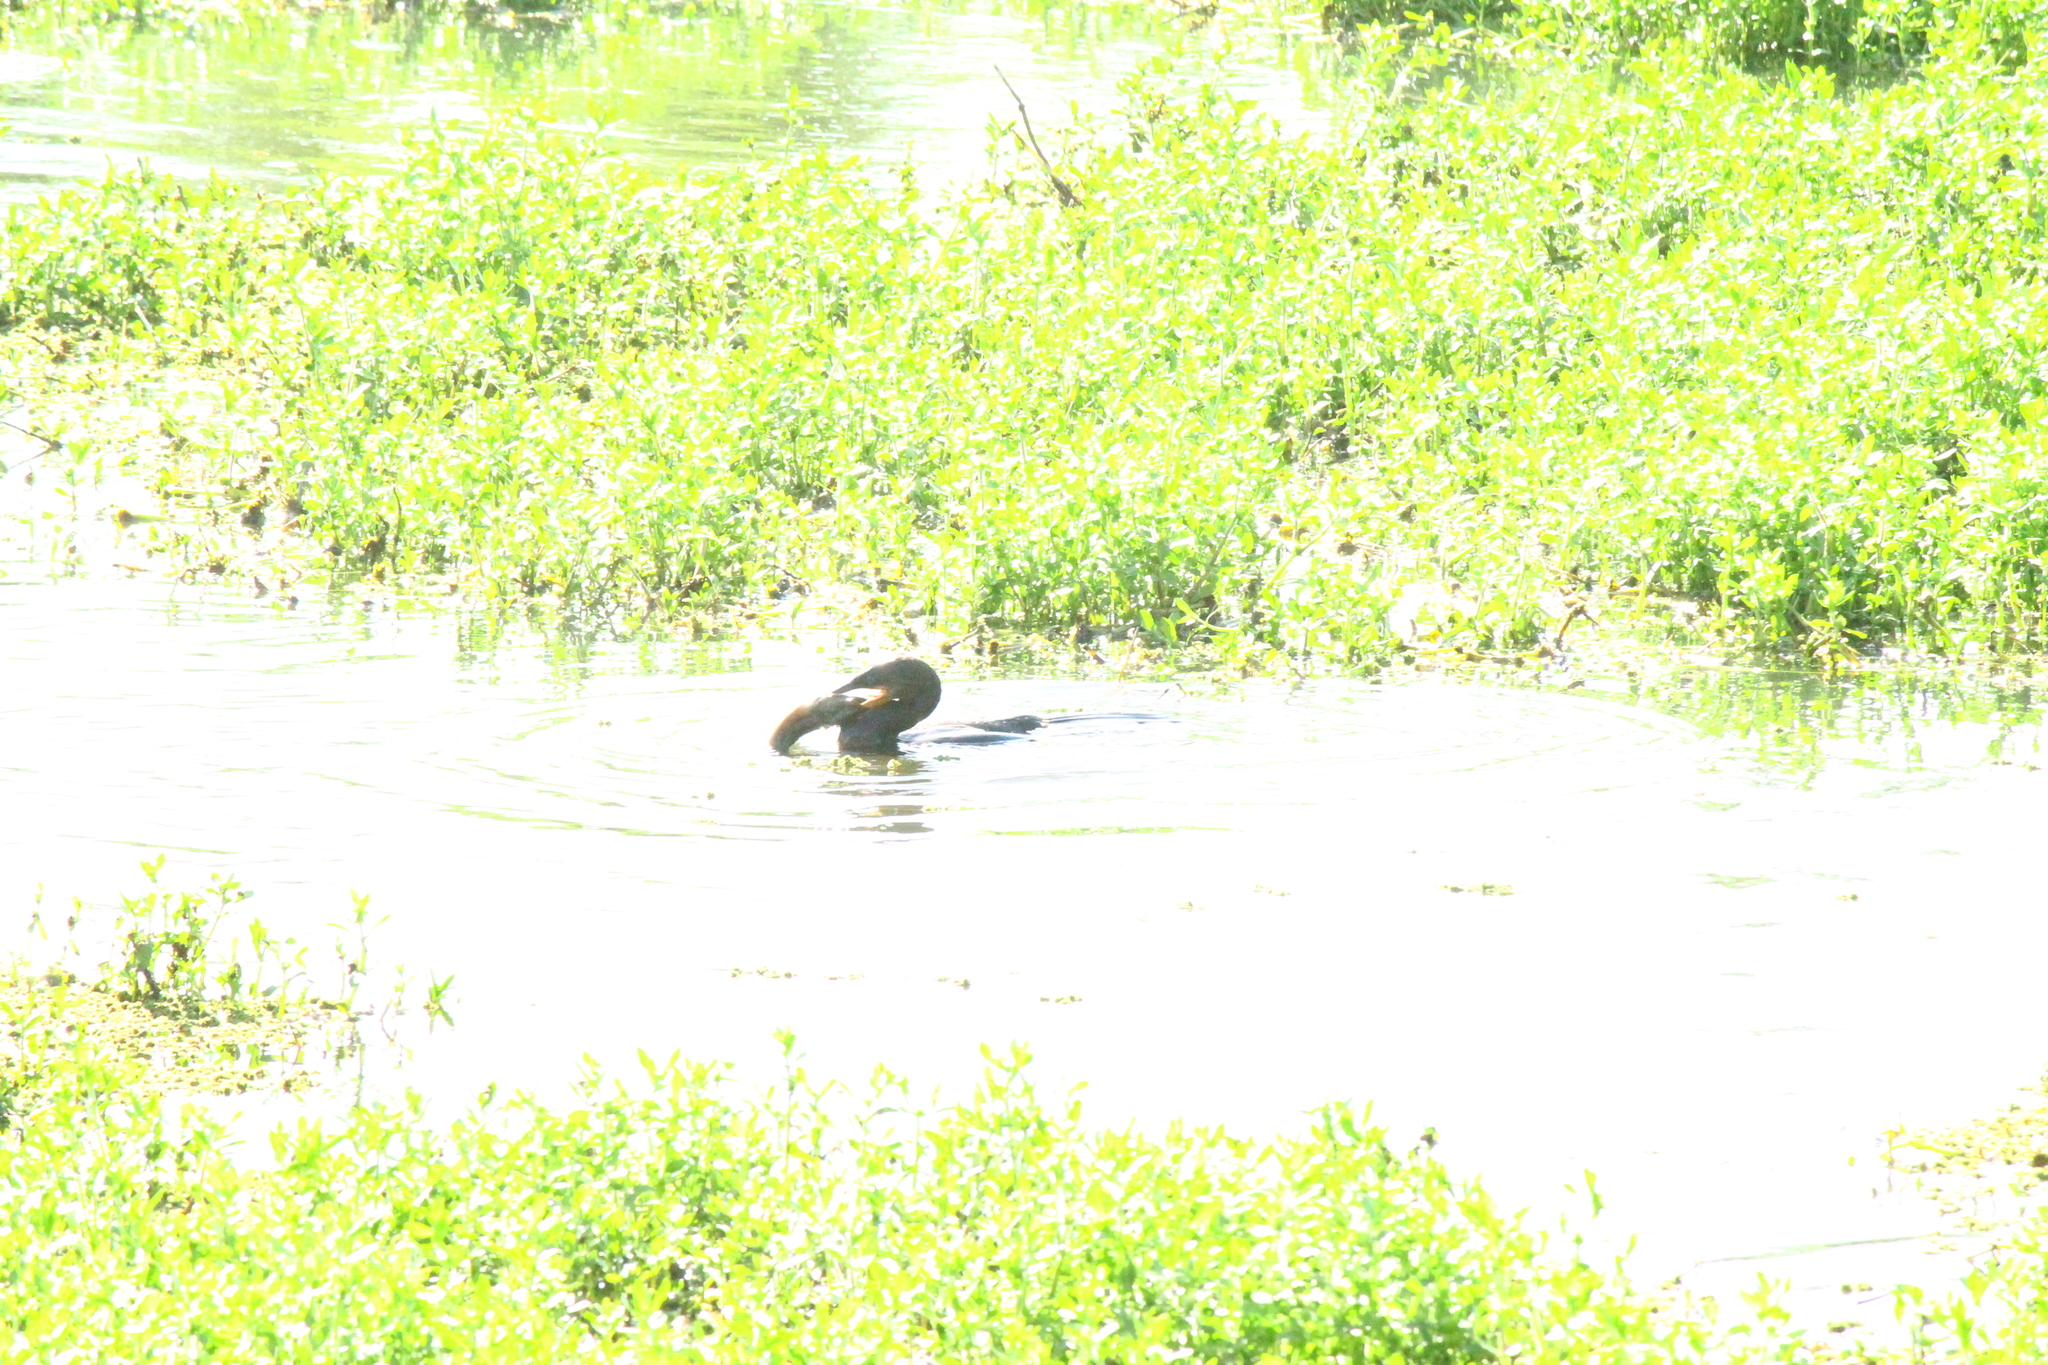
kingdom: Animalia
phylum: Chordata
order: Synbranchiformes
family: Synbranchidae
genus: Synbranchus
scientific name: Synbranchus marmoratus
